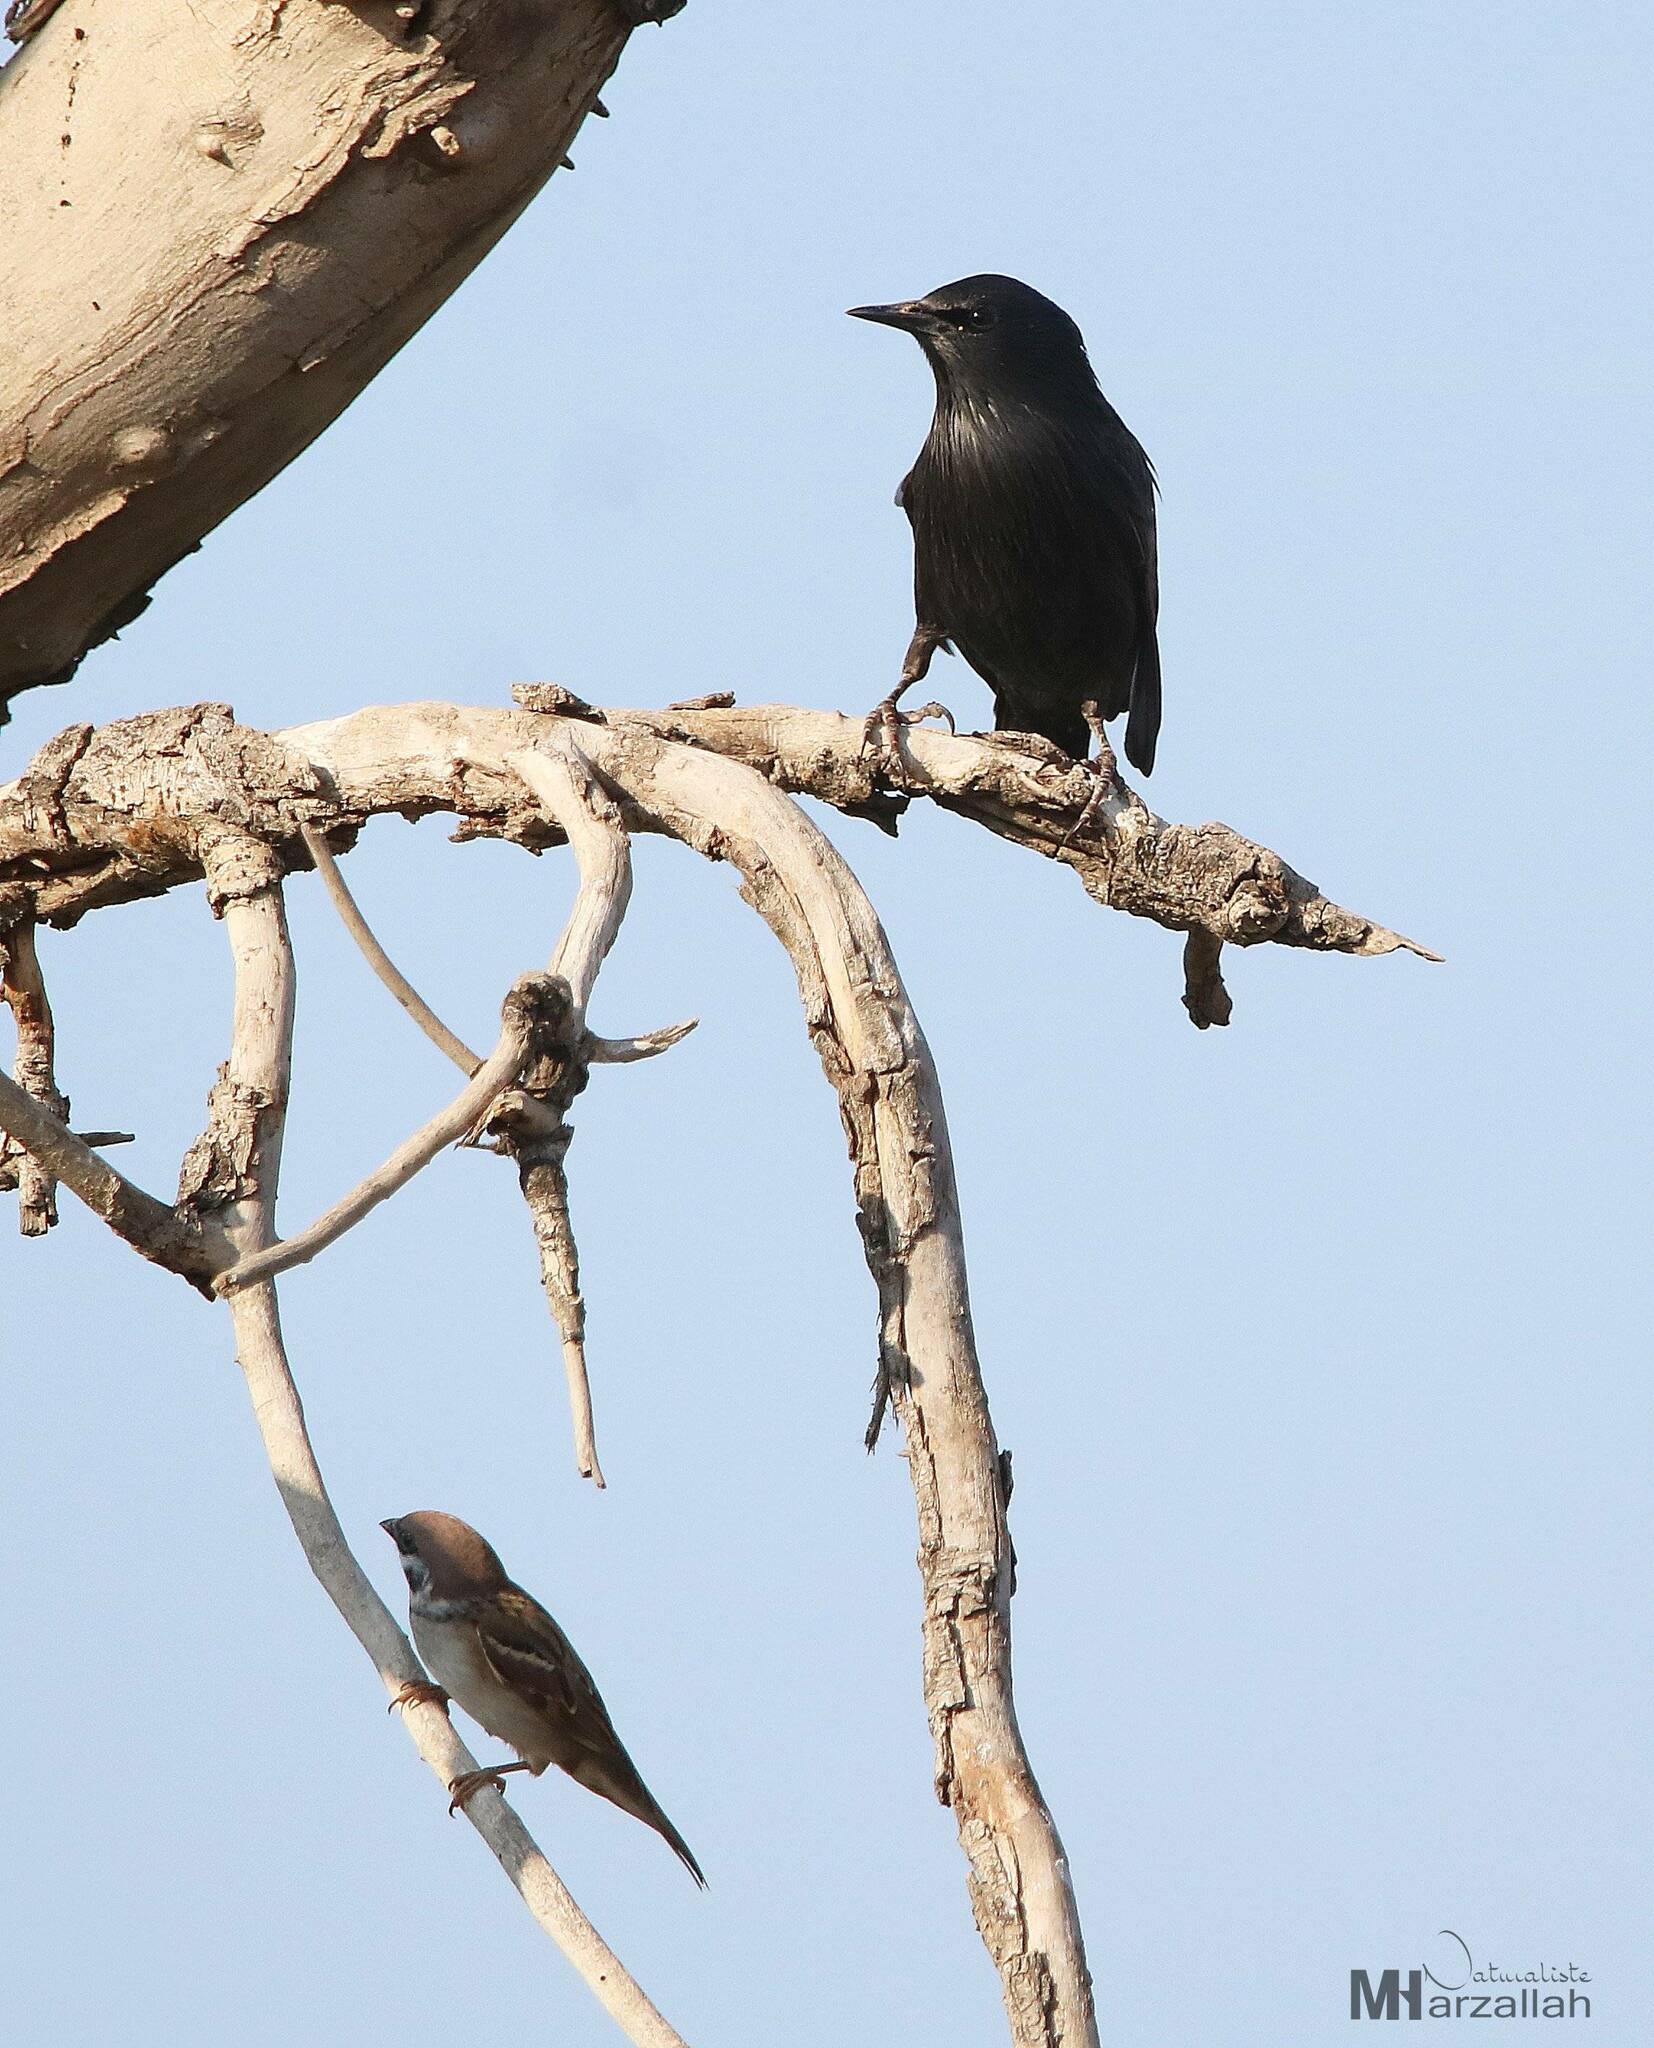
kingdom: Animalia
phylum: Chordata
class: Aves
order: Passeriformes
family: Sturnidae
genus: Sturnus
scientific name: Sturnus unicolor
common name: Spotless starling
